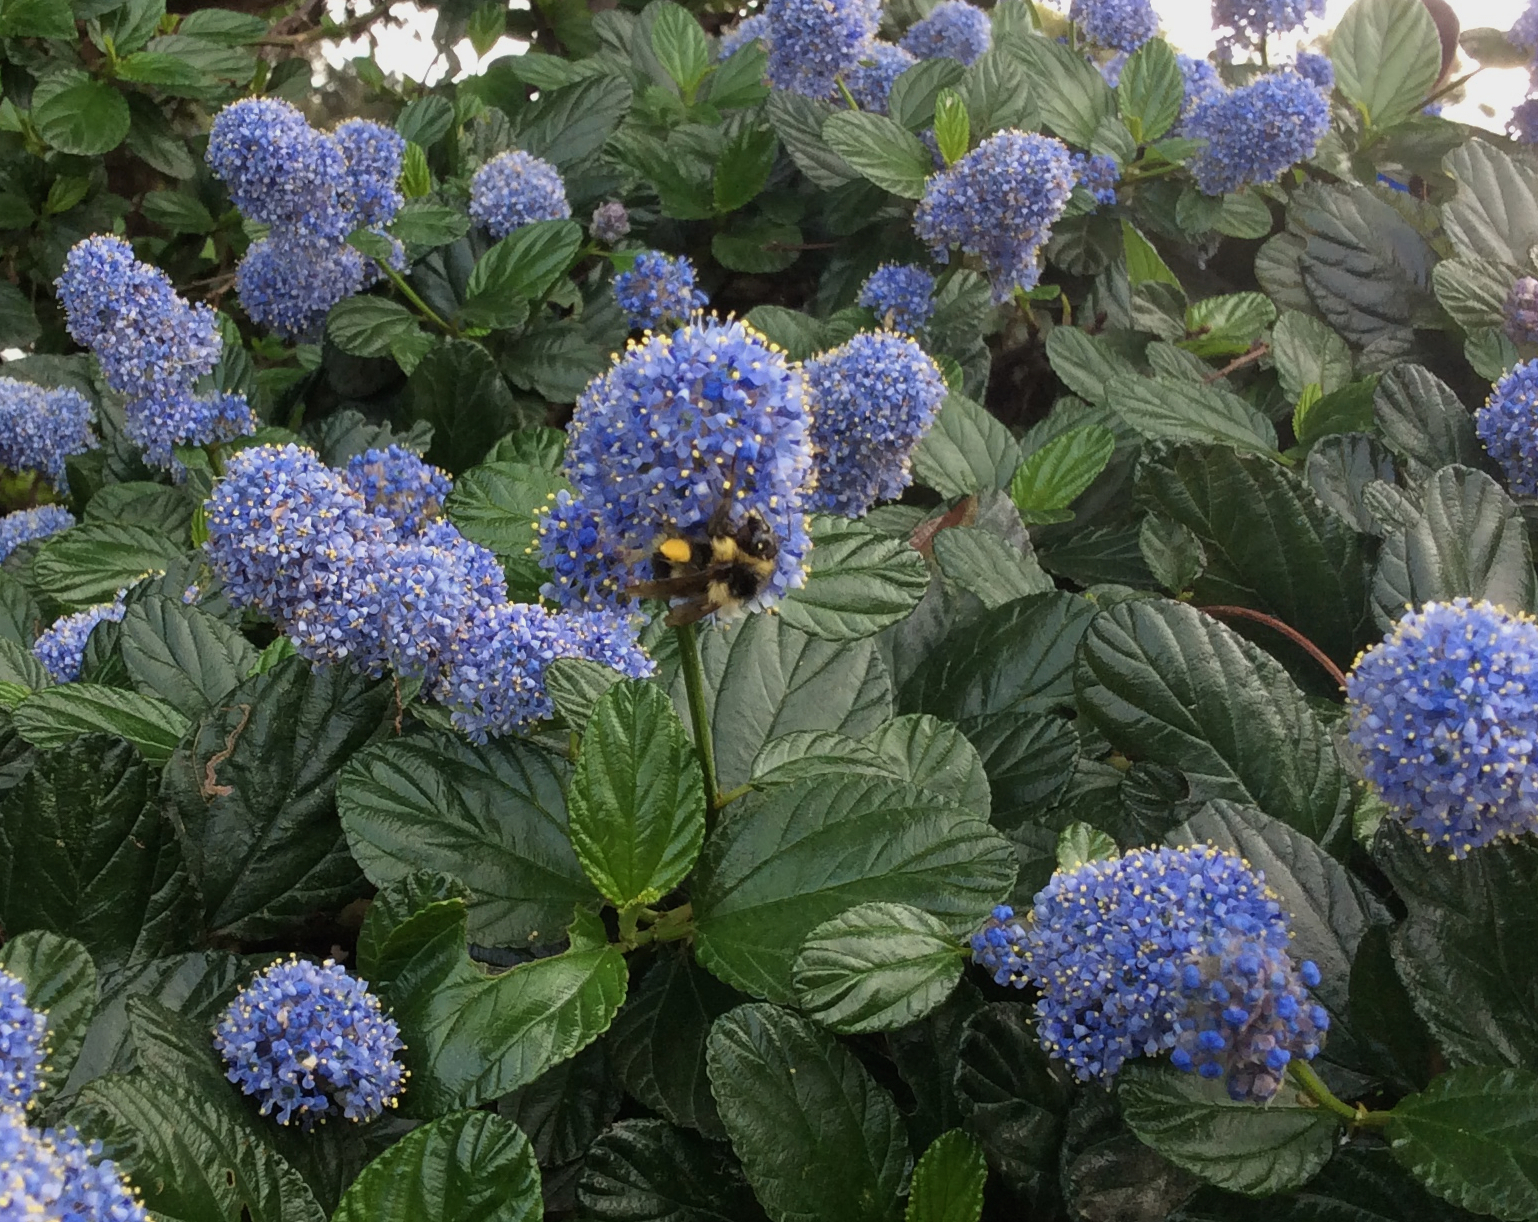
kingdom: Animalia
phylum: Arthropoda
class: Insecta
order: Hymenoptera
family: Apidae
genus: Bombus
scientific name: Bombus melanopygus
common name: Black tail bumble bee
